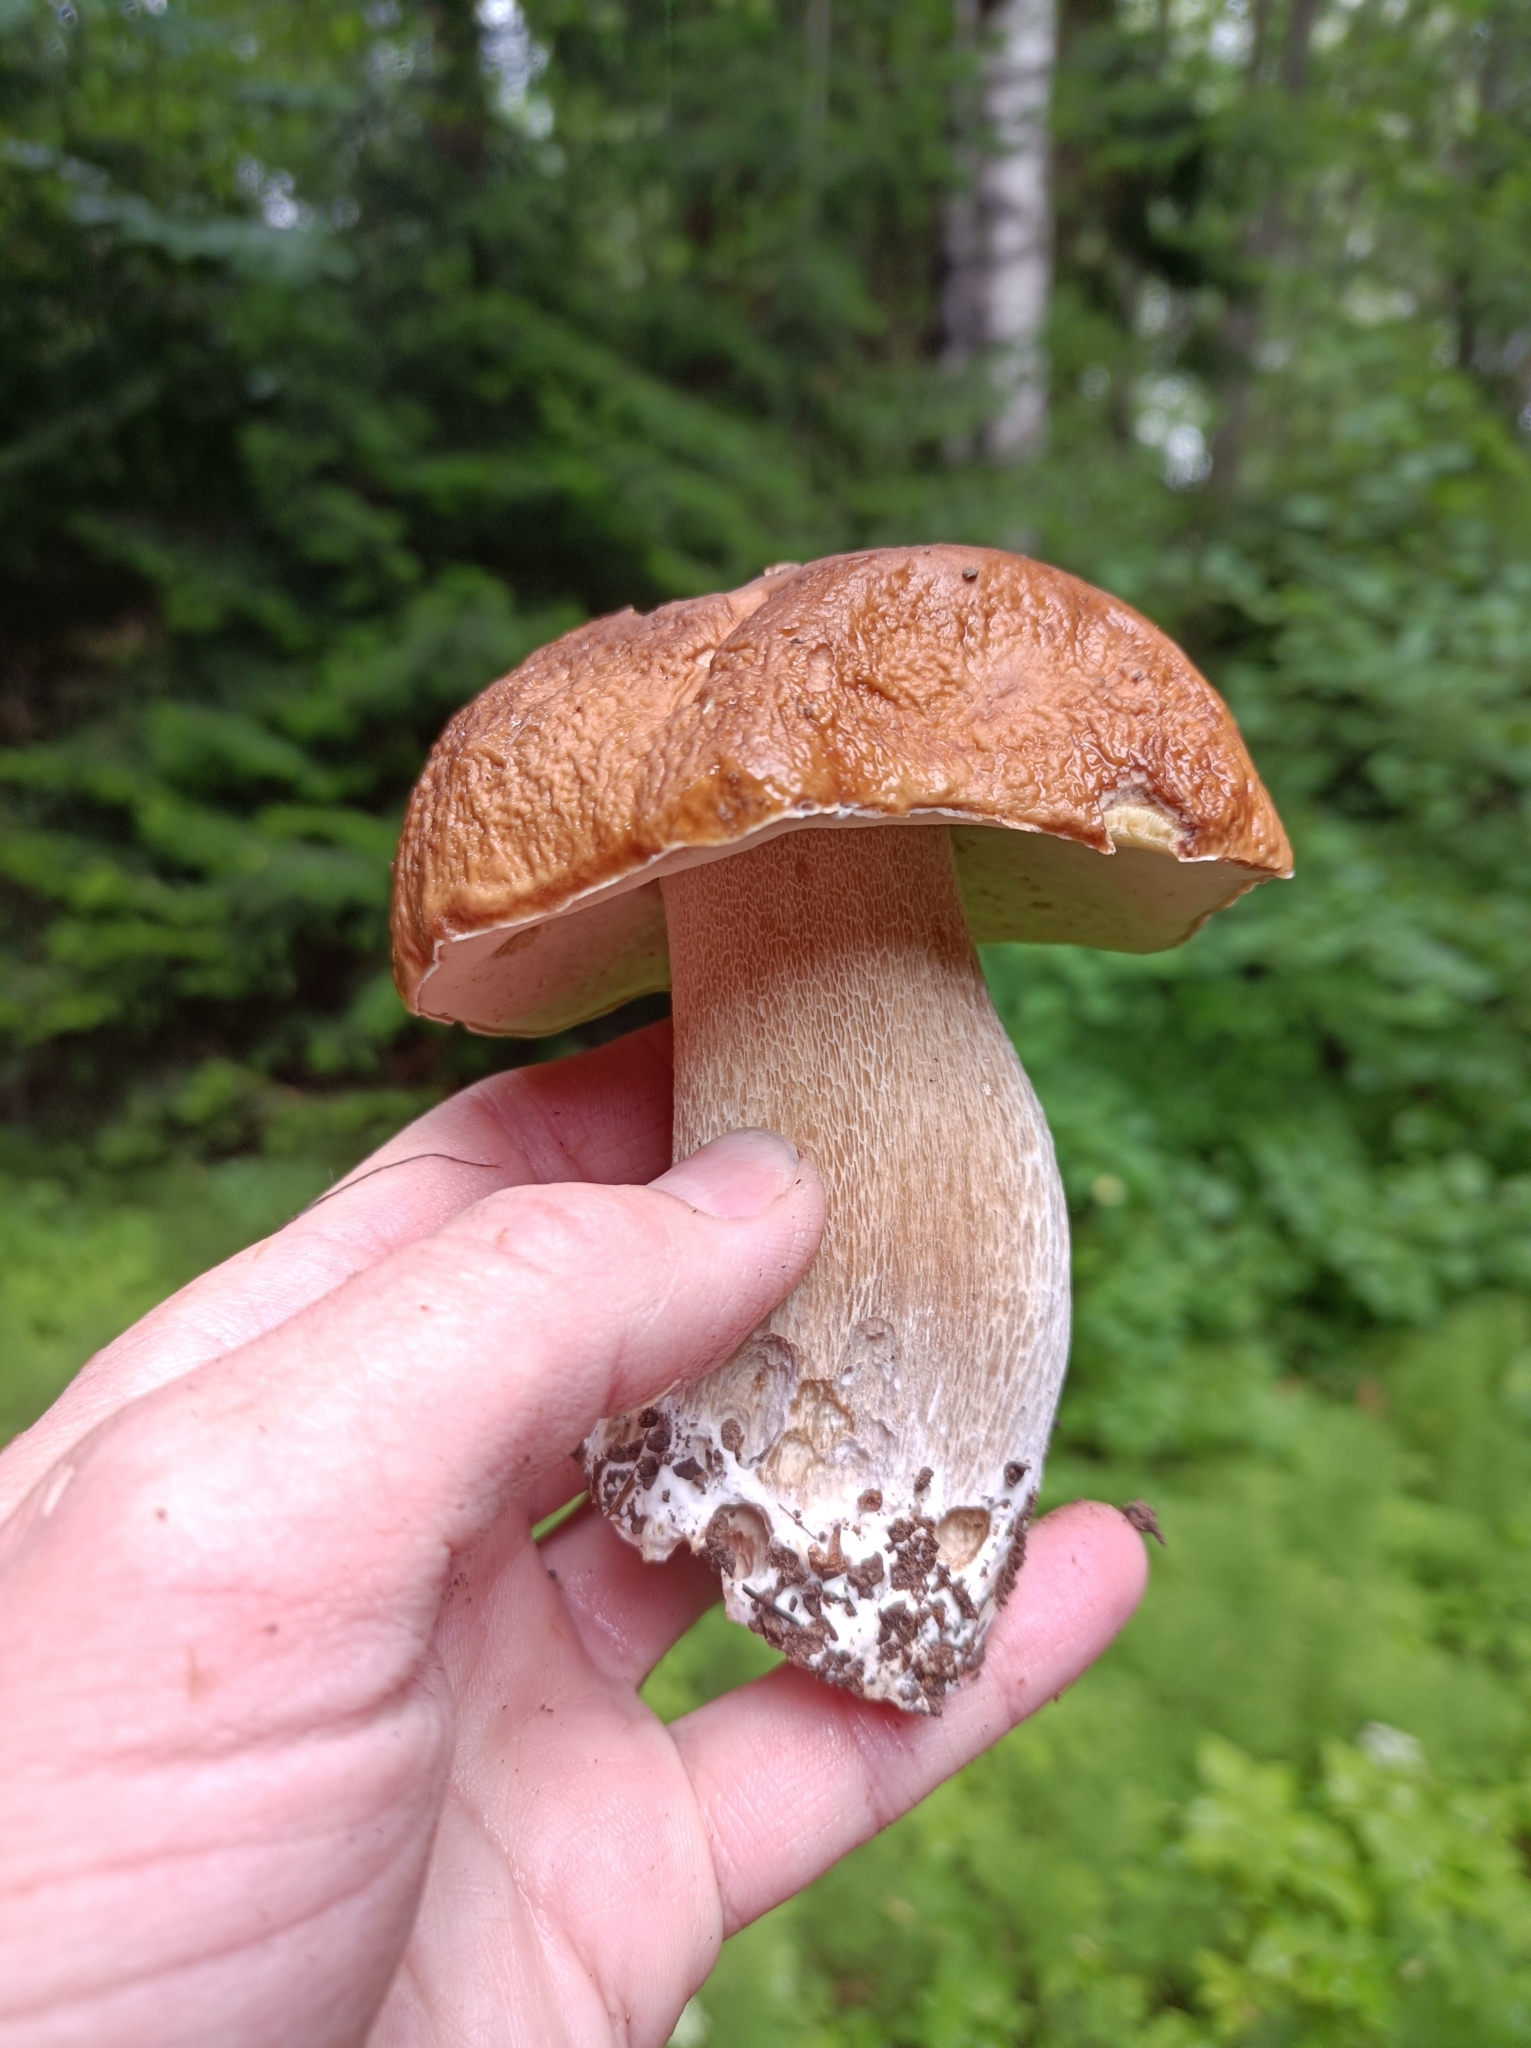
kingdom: Fungi
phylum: Basidiomycota
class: Agaricomycetes
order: Boletales
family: Boletaceae
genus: Boletus
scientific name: Boletus edulis
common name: Cep
